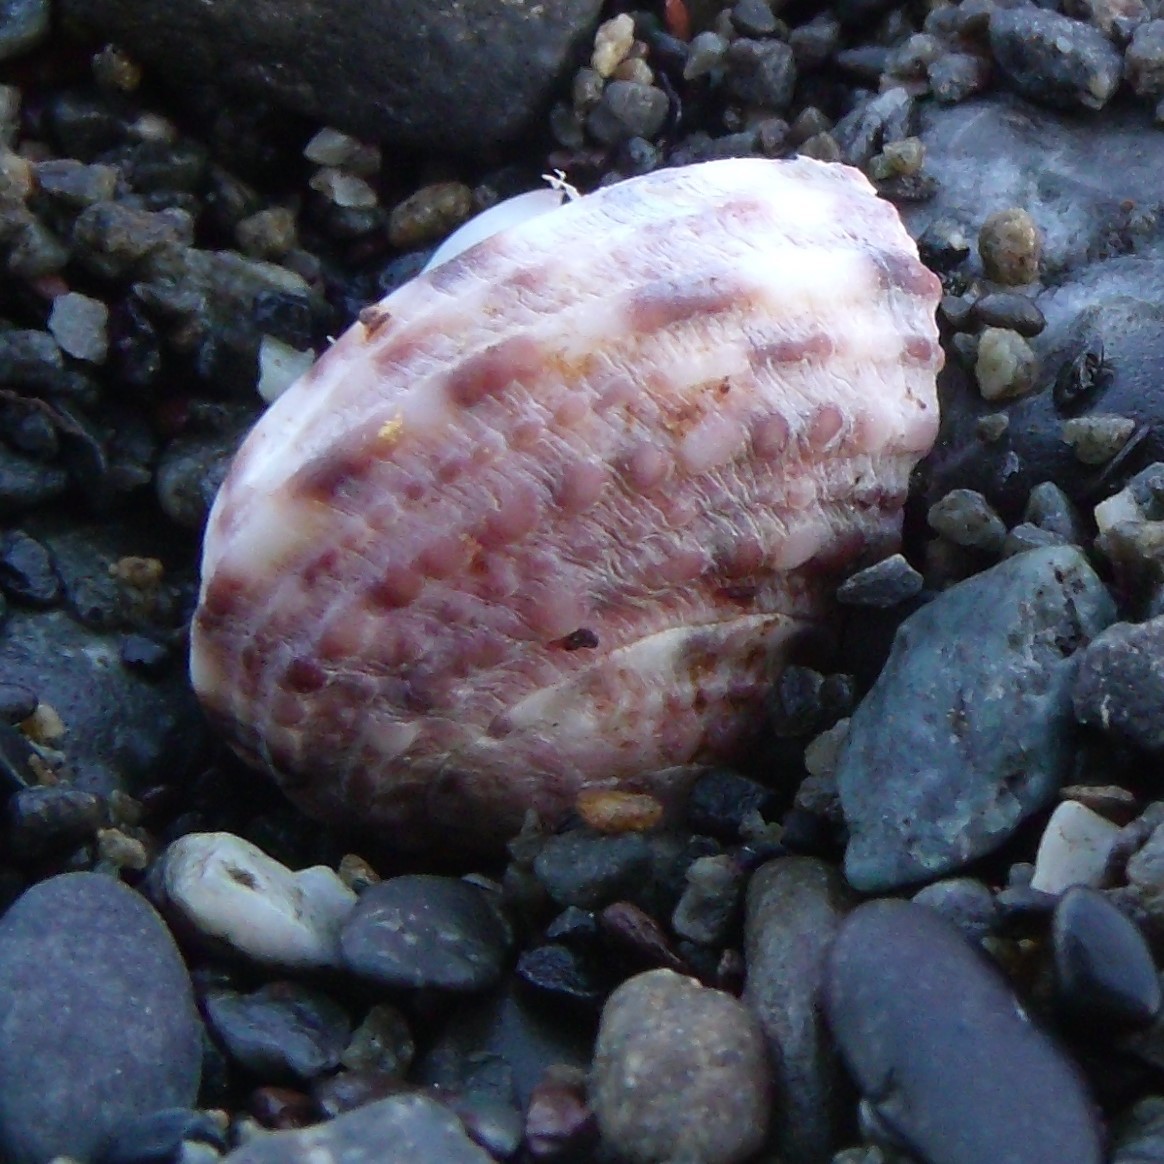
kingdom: Animalia
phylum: Mollusca
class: Gastropoda
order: Trochida
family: Turbinidae
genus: Modelia
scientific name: Modelia granosa
